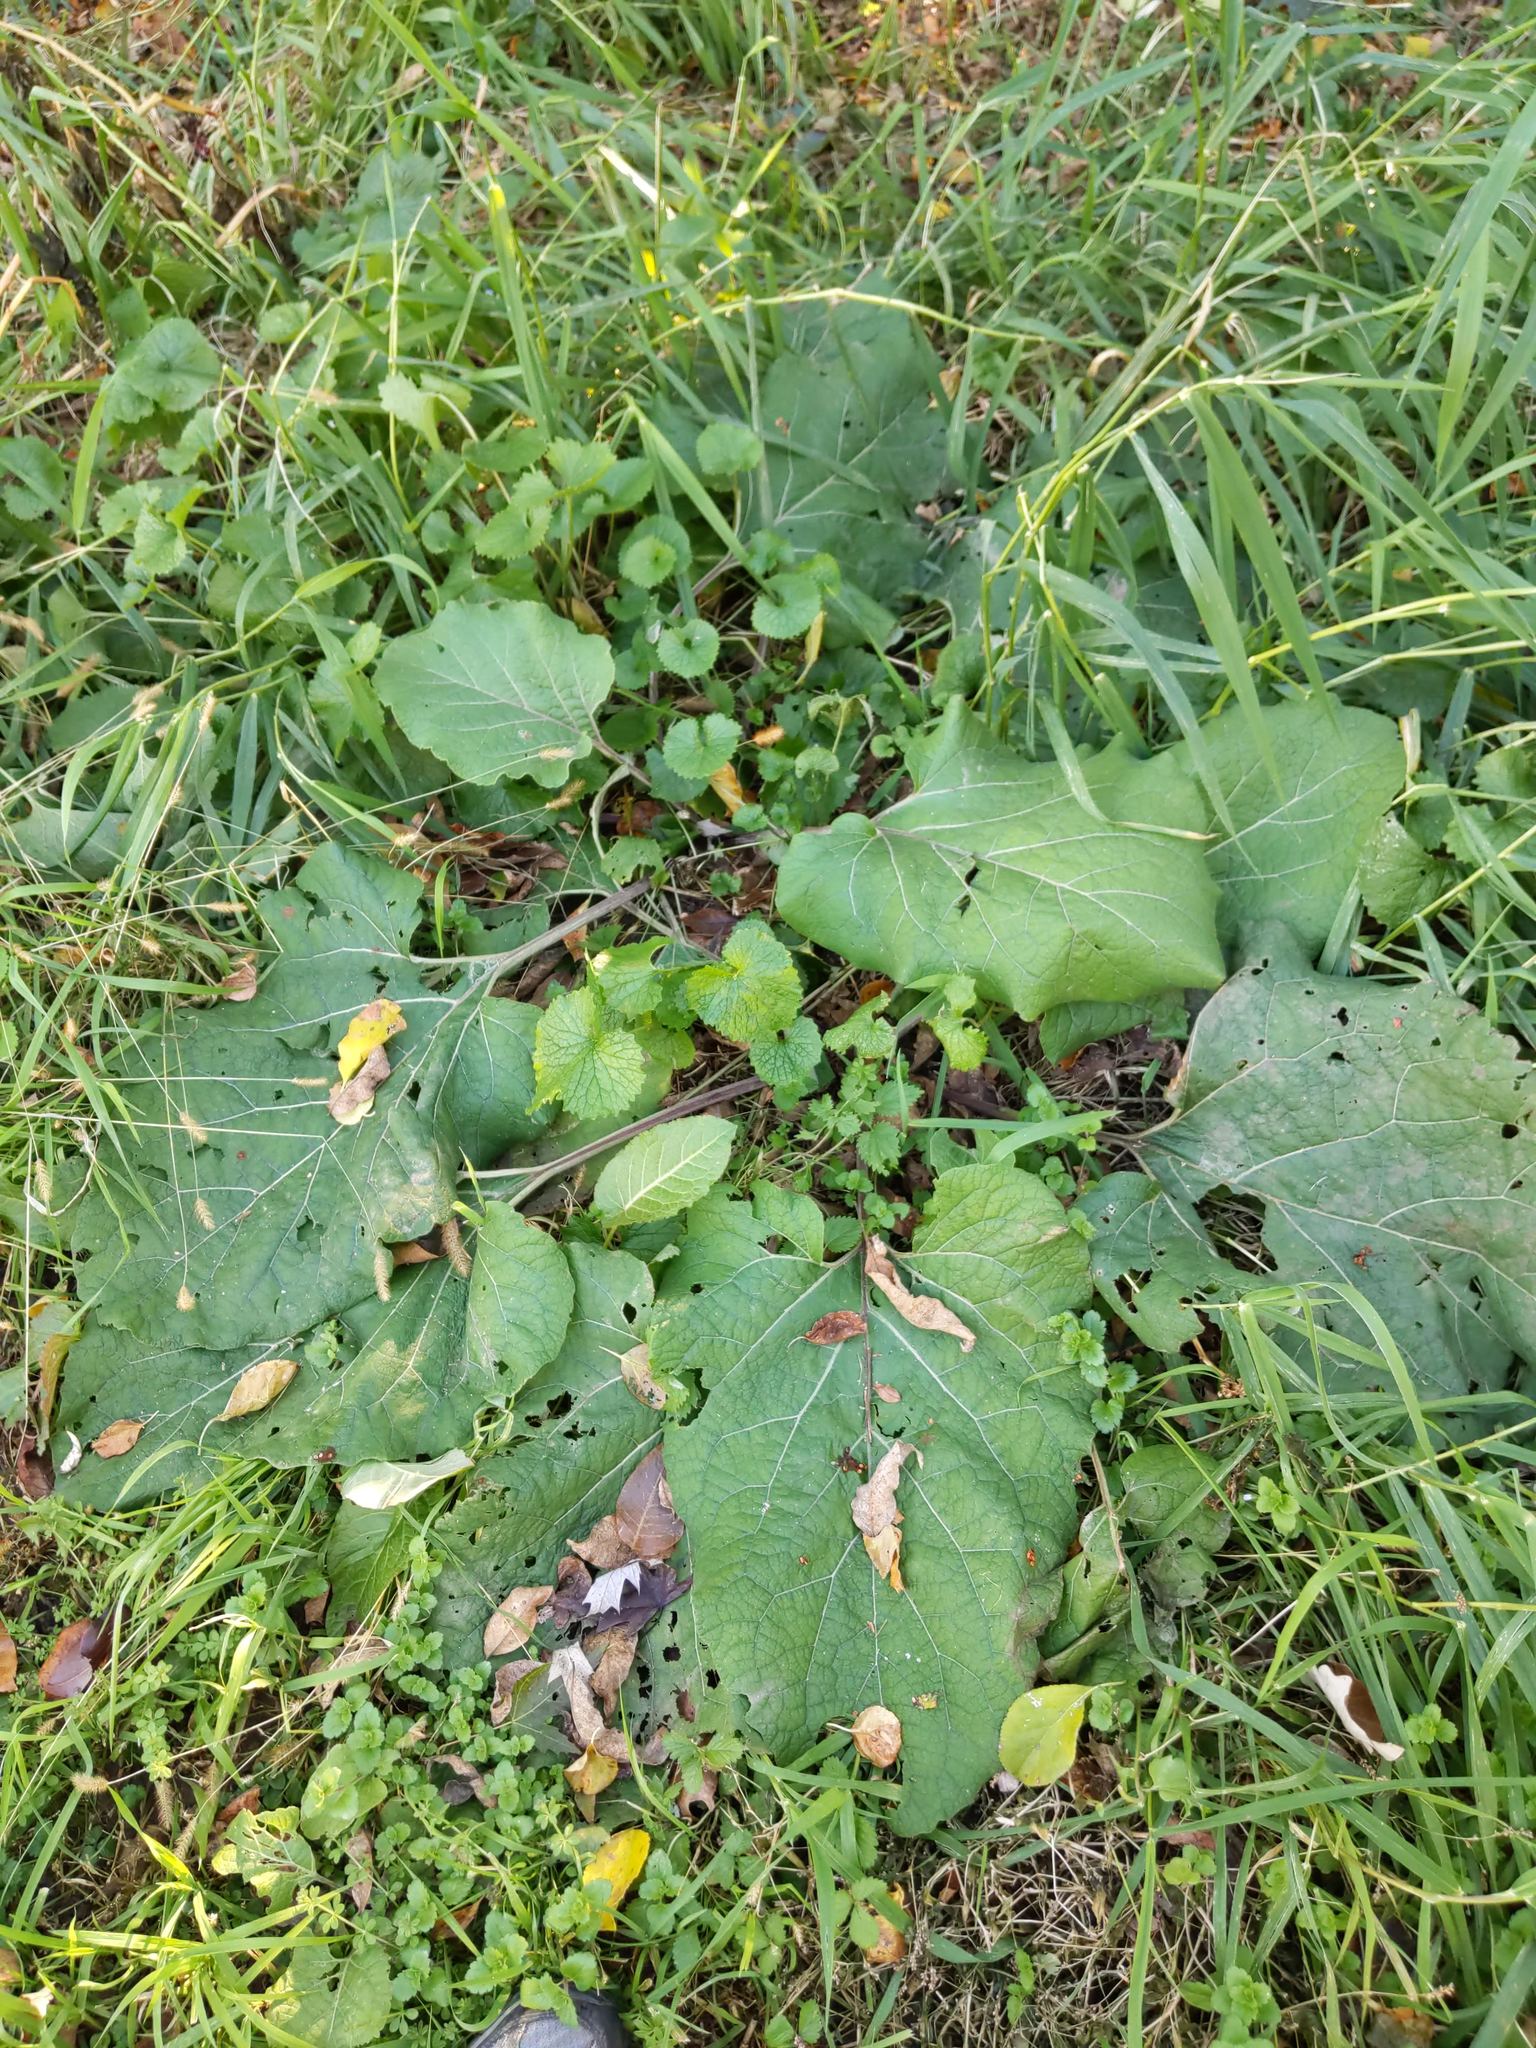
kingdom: Plantae
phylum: Tracheophyta
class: Magnoliopsida
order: Asterales
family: Asteraceae
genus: Arctium
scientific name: Arctium
